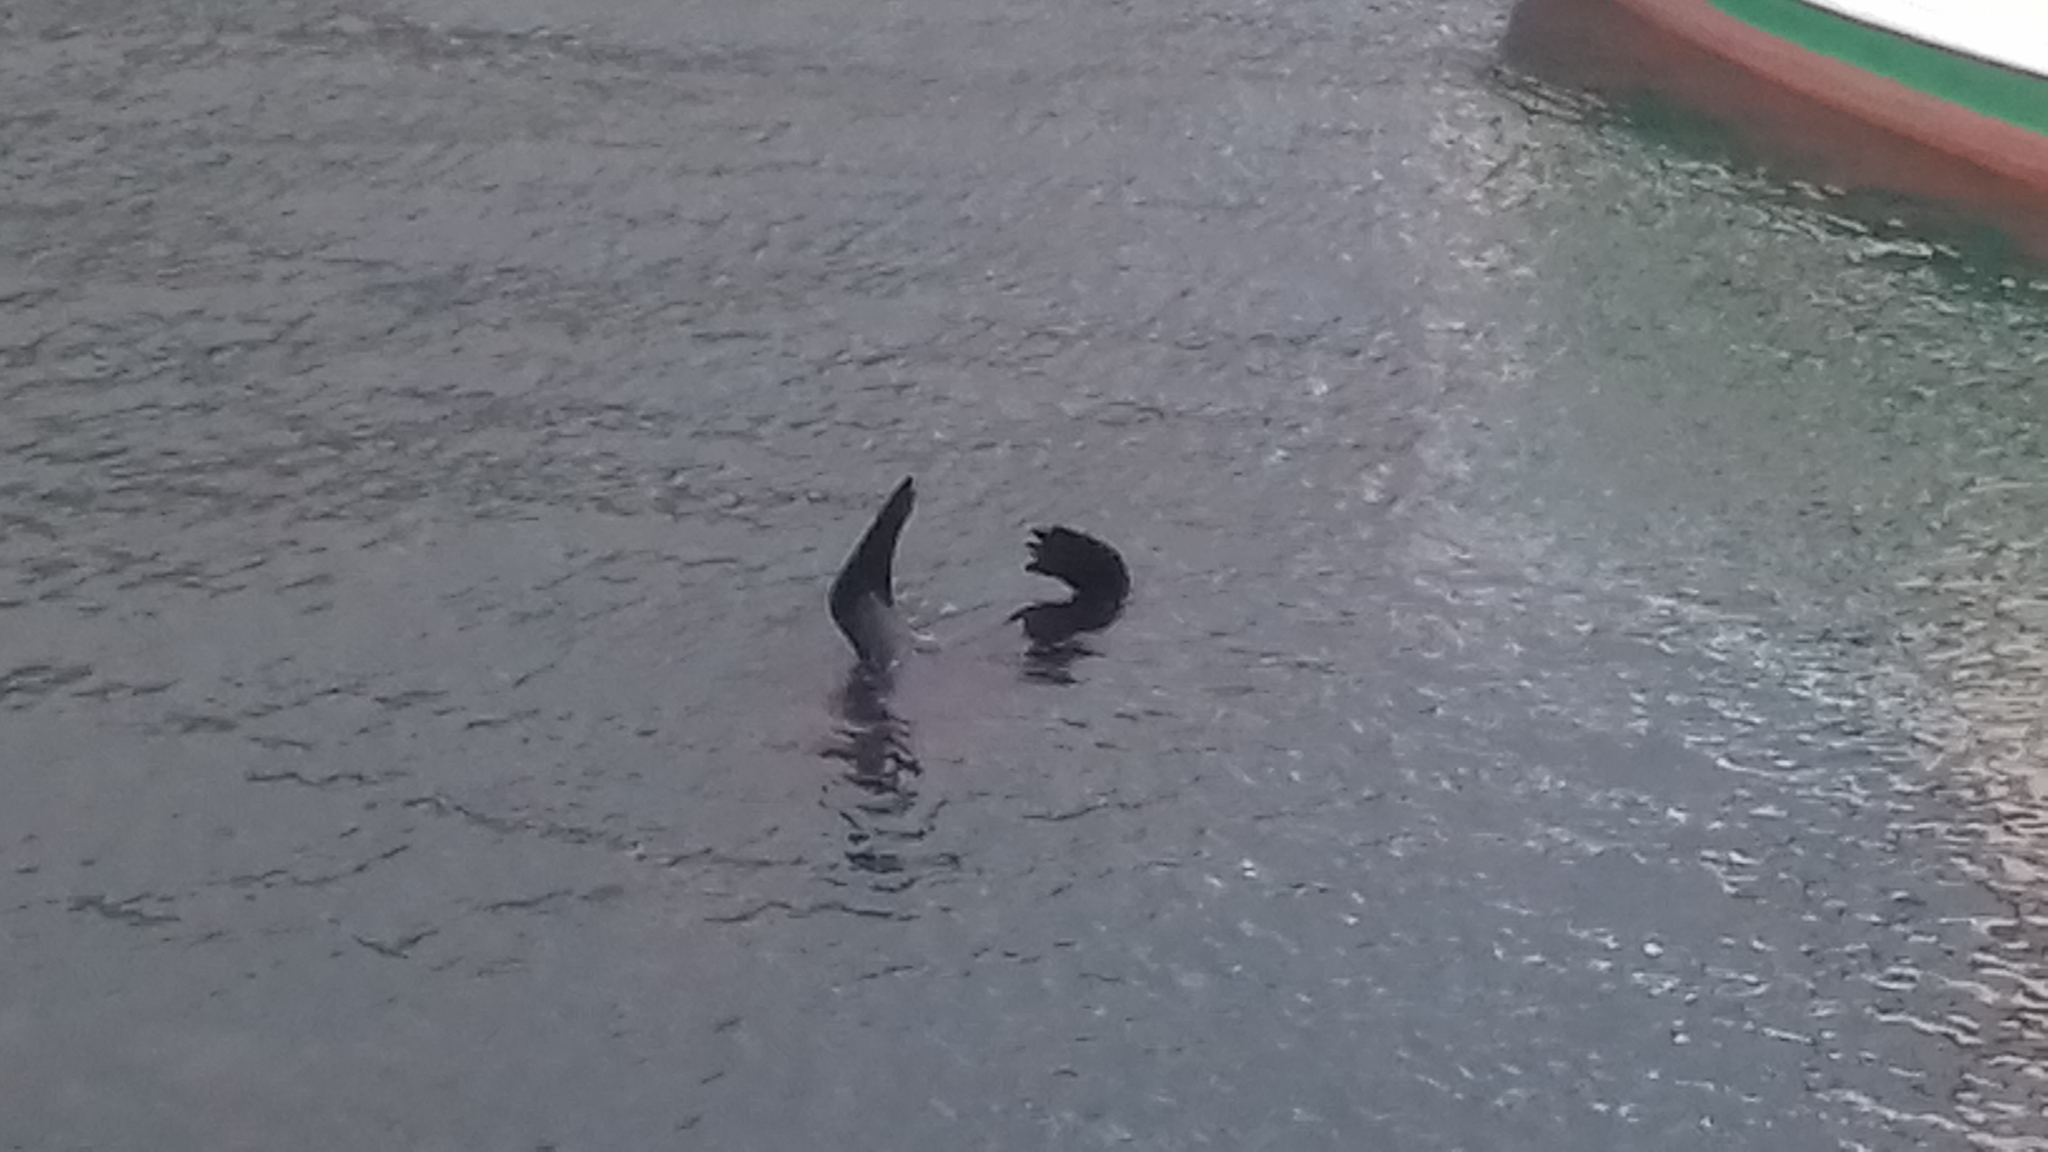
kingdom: Animalia
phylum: Chordata
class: Mammalia
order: Carnivora
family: Otariidae
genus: Arctocephalus
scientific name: Arctocephalus pusillus
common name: Brown fur seal
